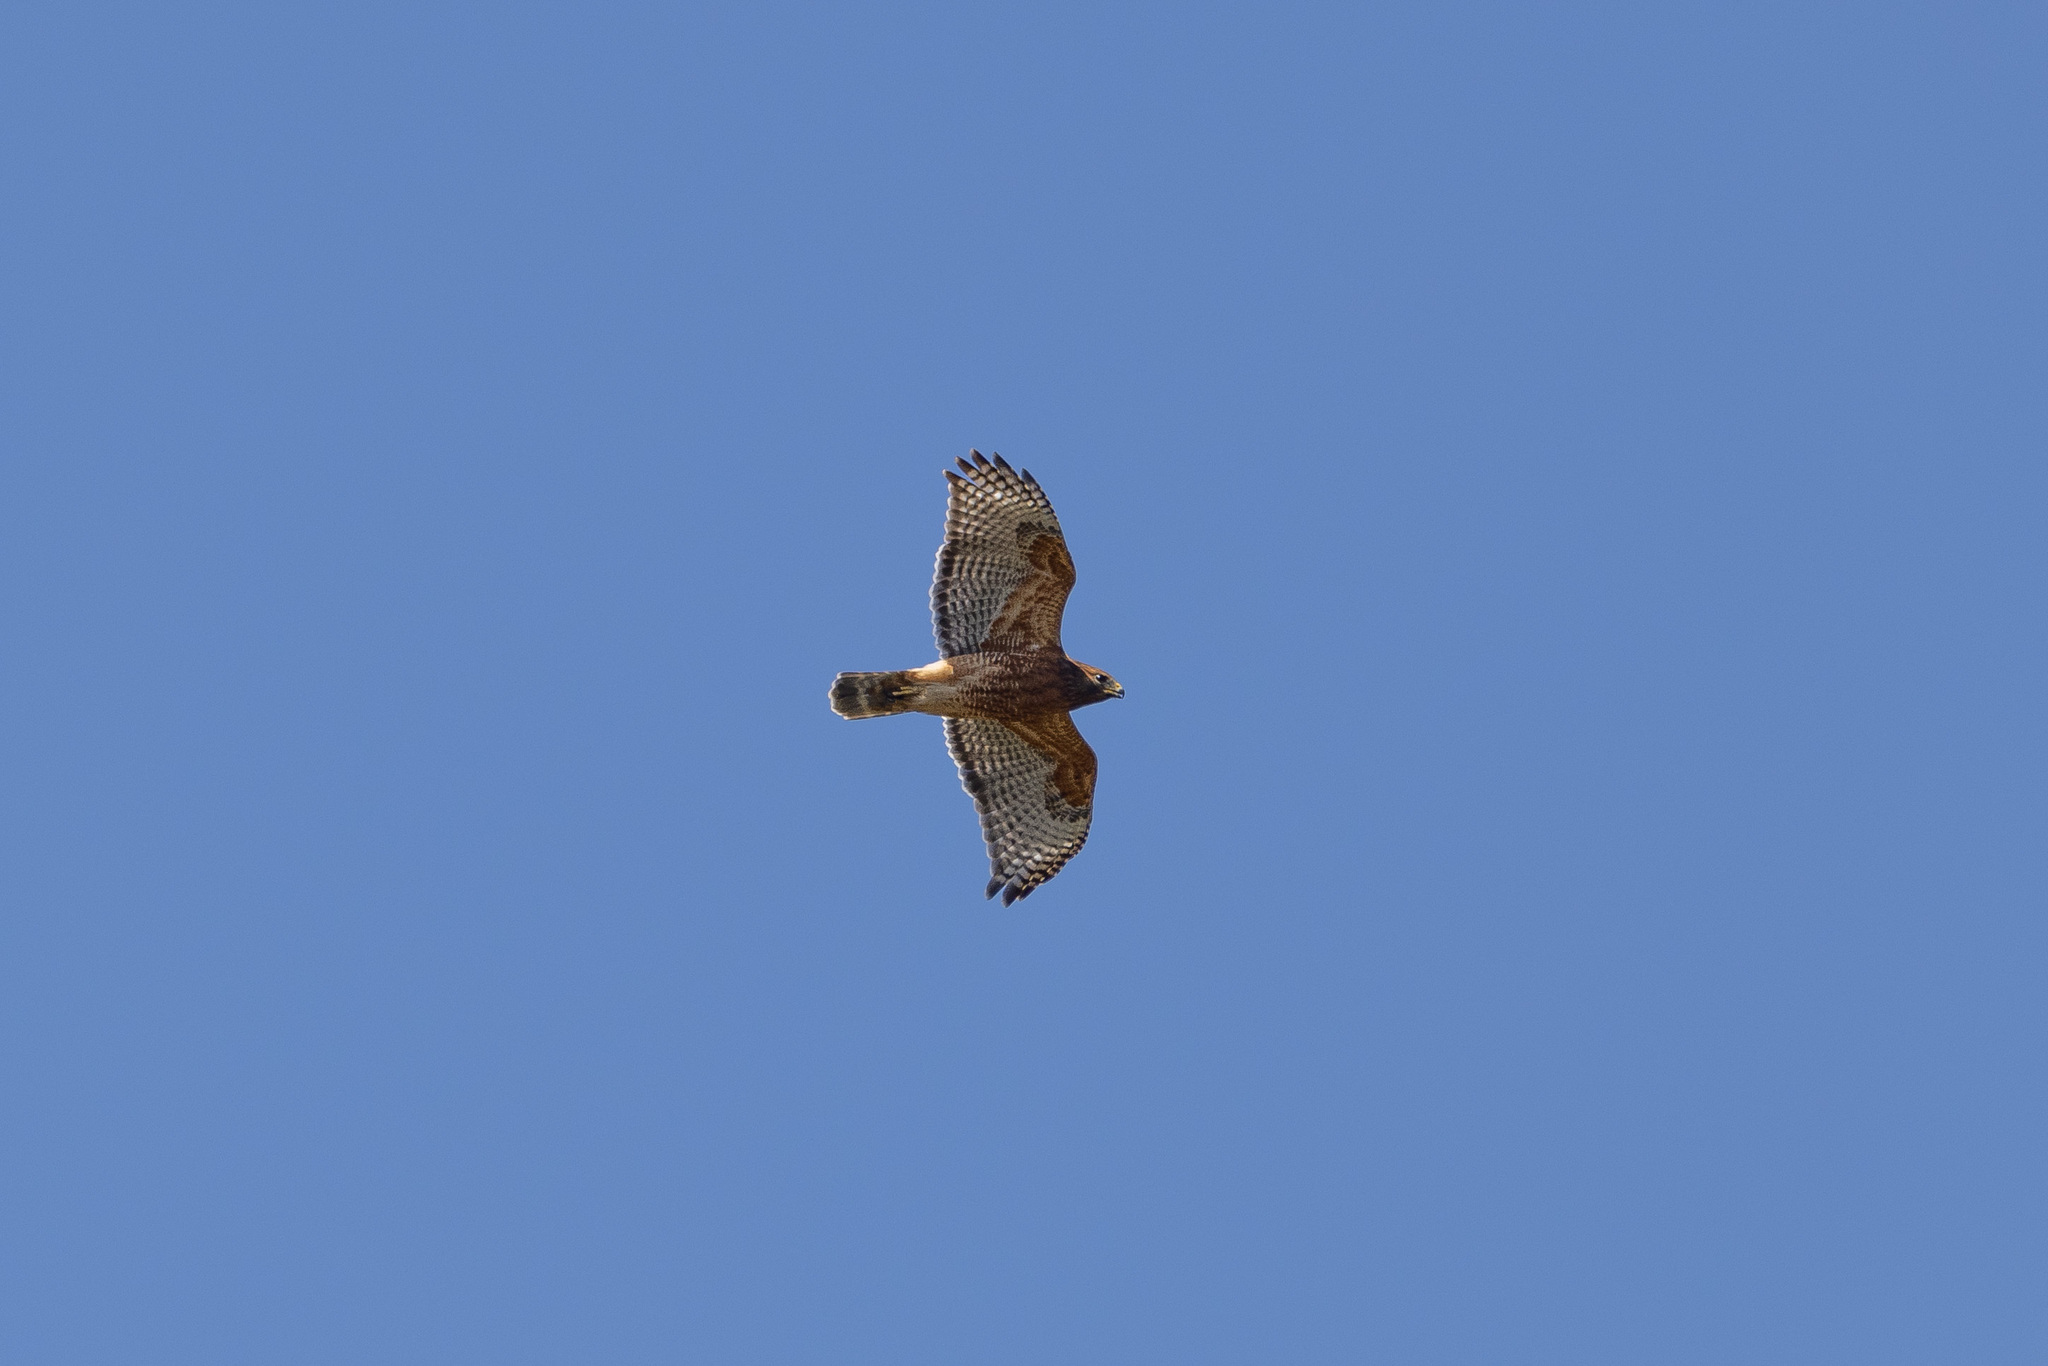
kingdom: Animalia
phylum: Chordata
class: Aves
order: Accipitriformes
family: Accipitridae
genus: Buteo
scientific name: Buteo lineatus
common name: Red-shouldered hawk
